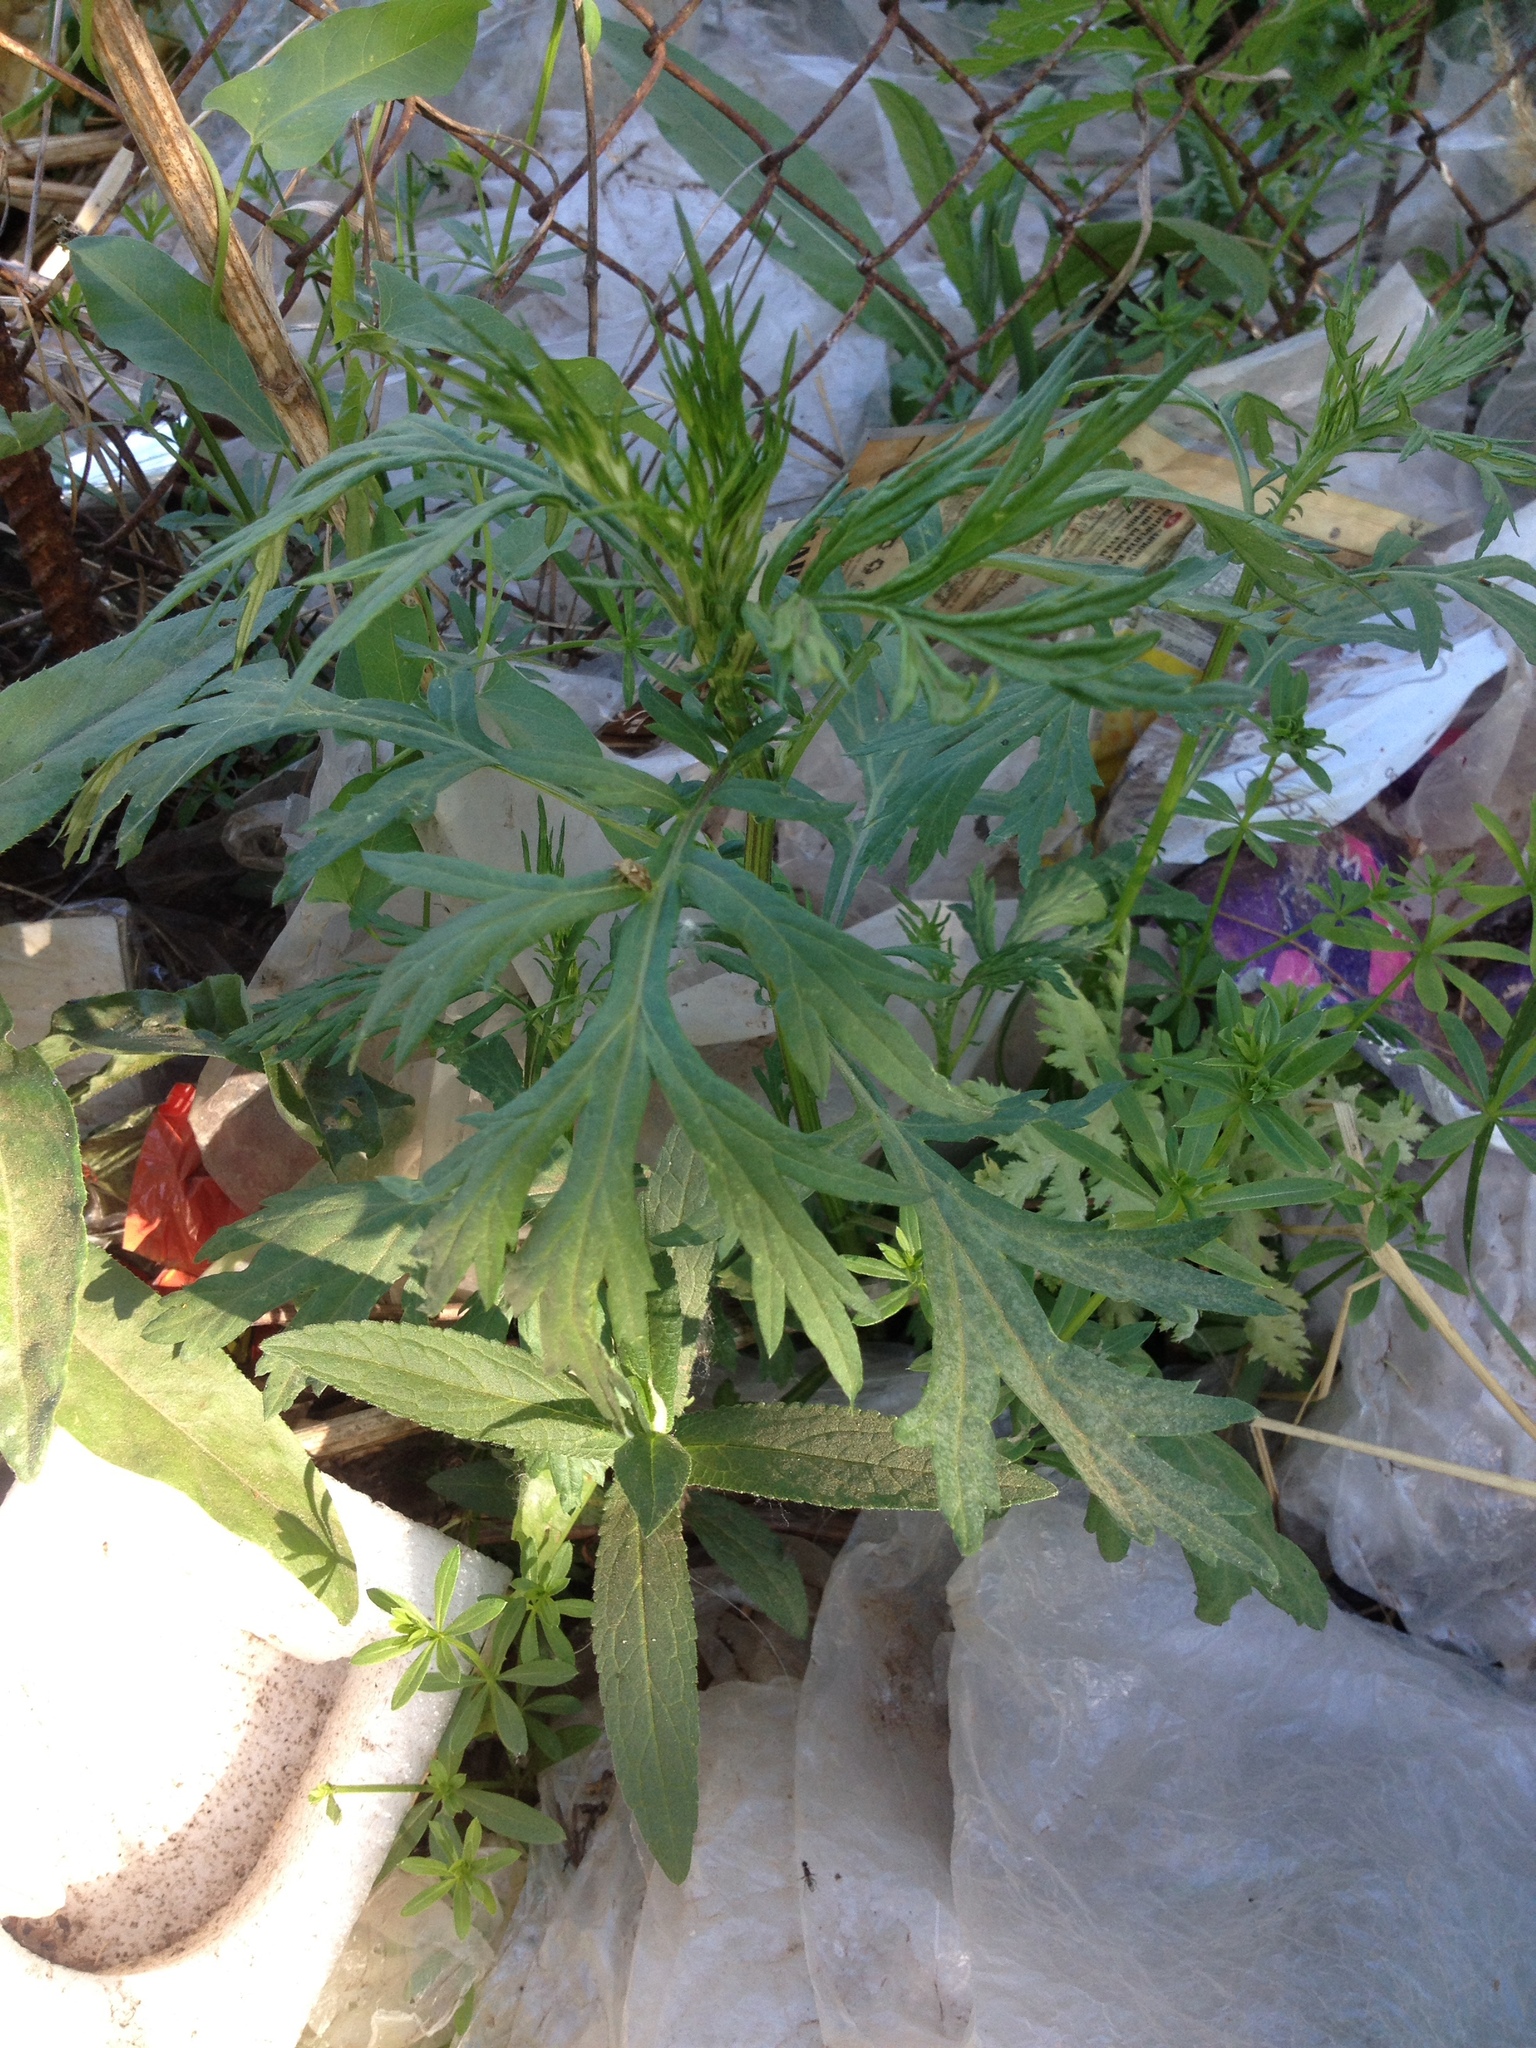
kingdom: Plantae
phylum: Tracheophyta
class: Magnoliopsida
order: Asterales
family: Asteraceae
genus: Artemisia
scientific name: Artemisia vulgaris
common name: Mugwort
